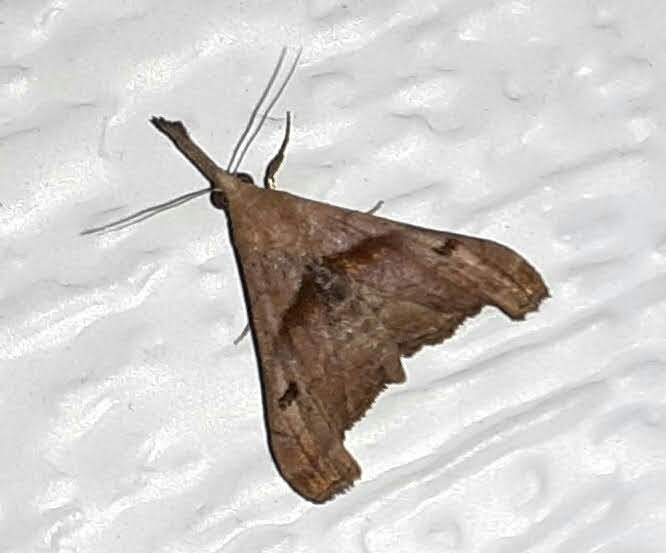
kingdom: Animalia
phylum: Arthropoda
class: Insecta
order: Lepidoptera
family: Erebidae
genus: Palthis
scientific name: Palthis angulalis
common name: Dark-spotted palthis moth
